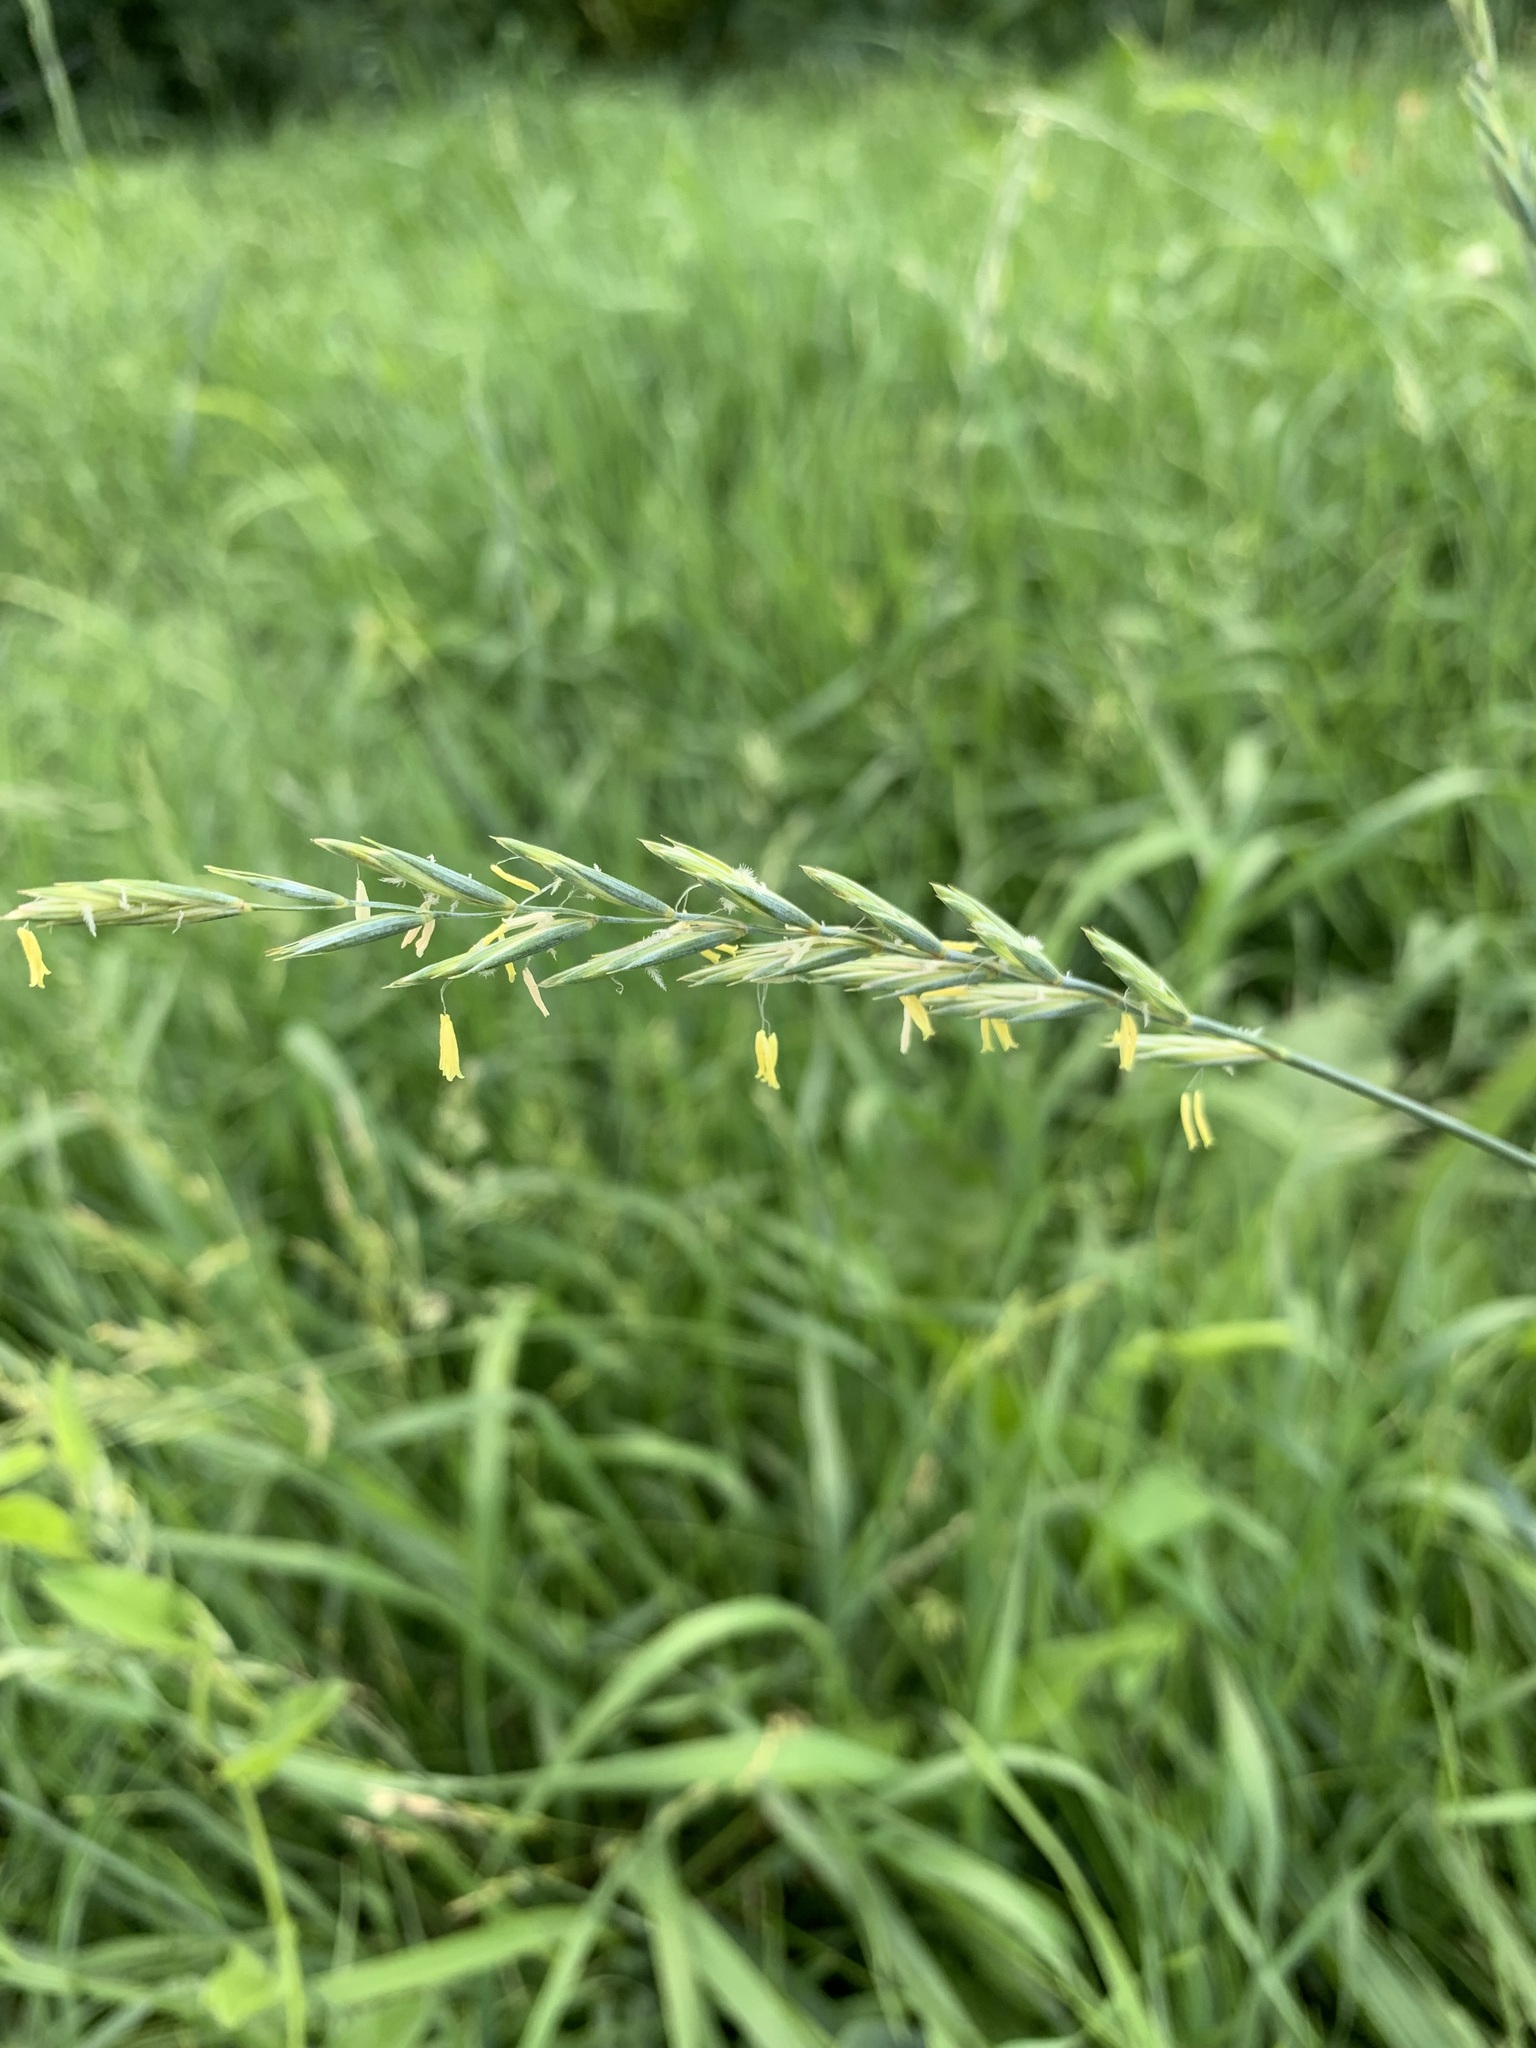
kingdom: Plantae
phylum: Tracheophyta
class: Liliopsida
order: Poales
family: Poaceae
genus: Elymus
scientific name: Elymus repens
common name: Quackgrass
